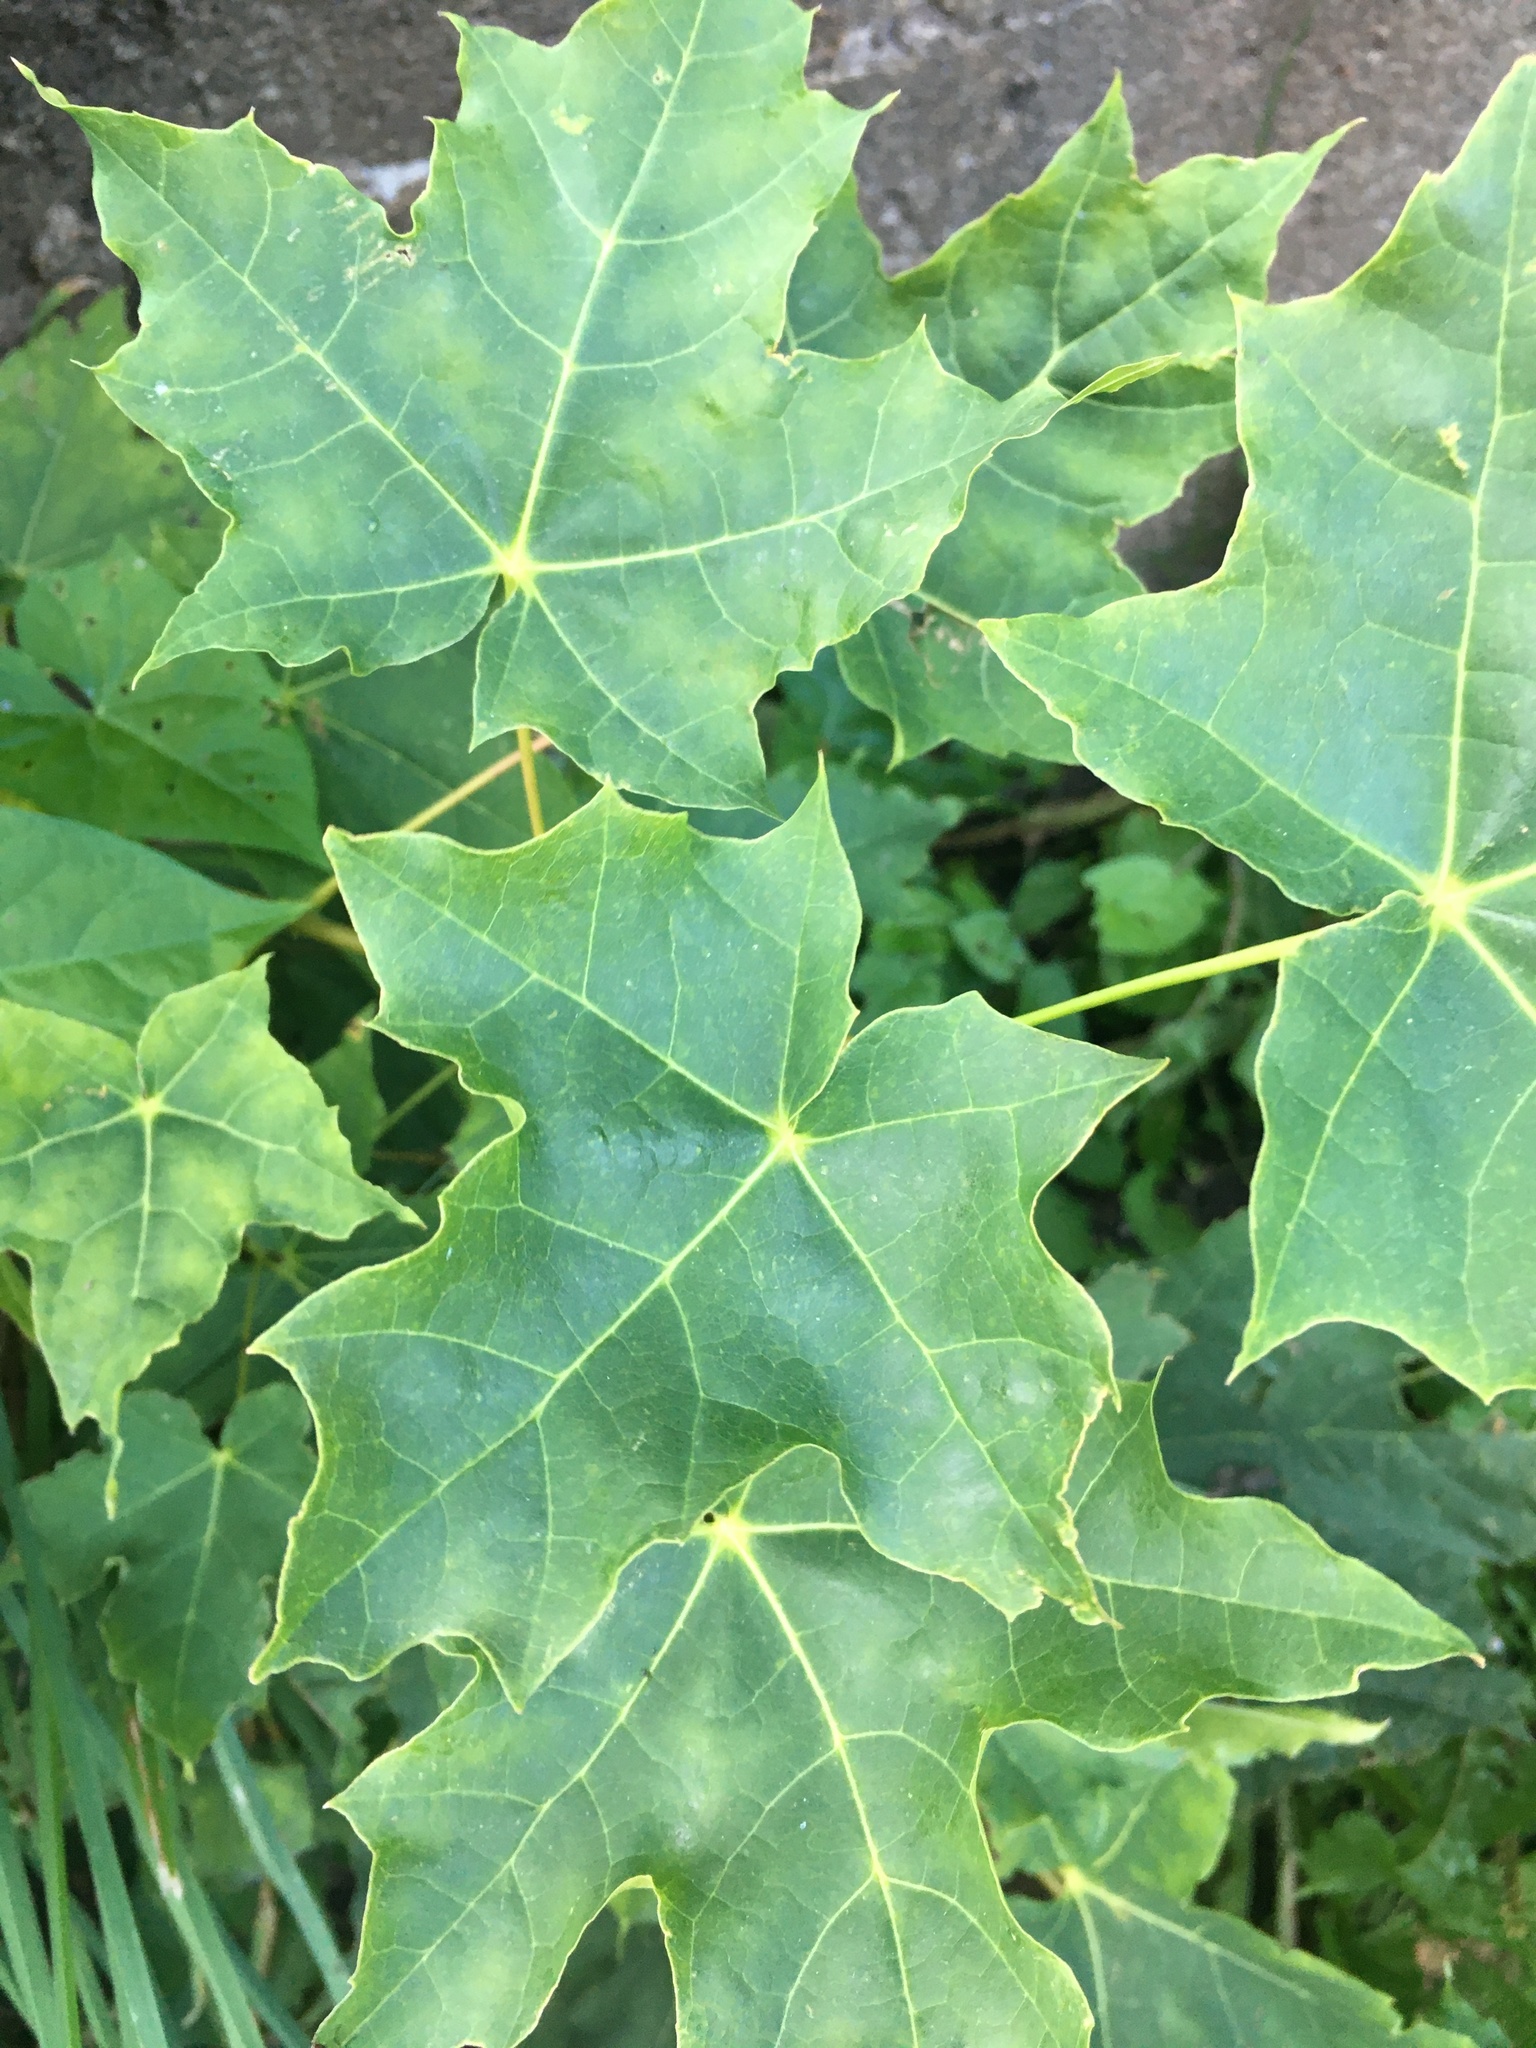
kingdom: Plantae
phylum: Tracheophyta
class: Magnoliopsida
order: Sapindales
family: Sapindaceae
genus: Acer
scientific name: Acer platanoides
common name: Norway maple
